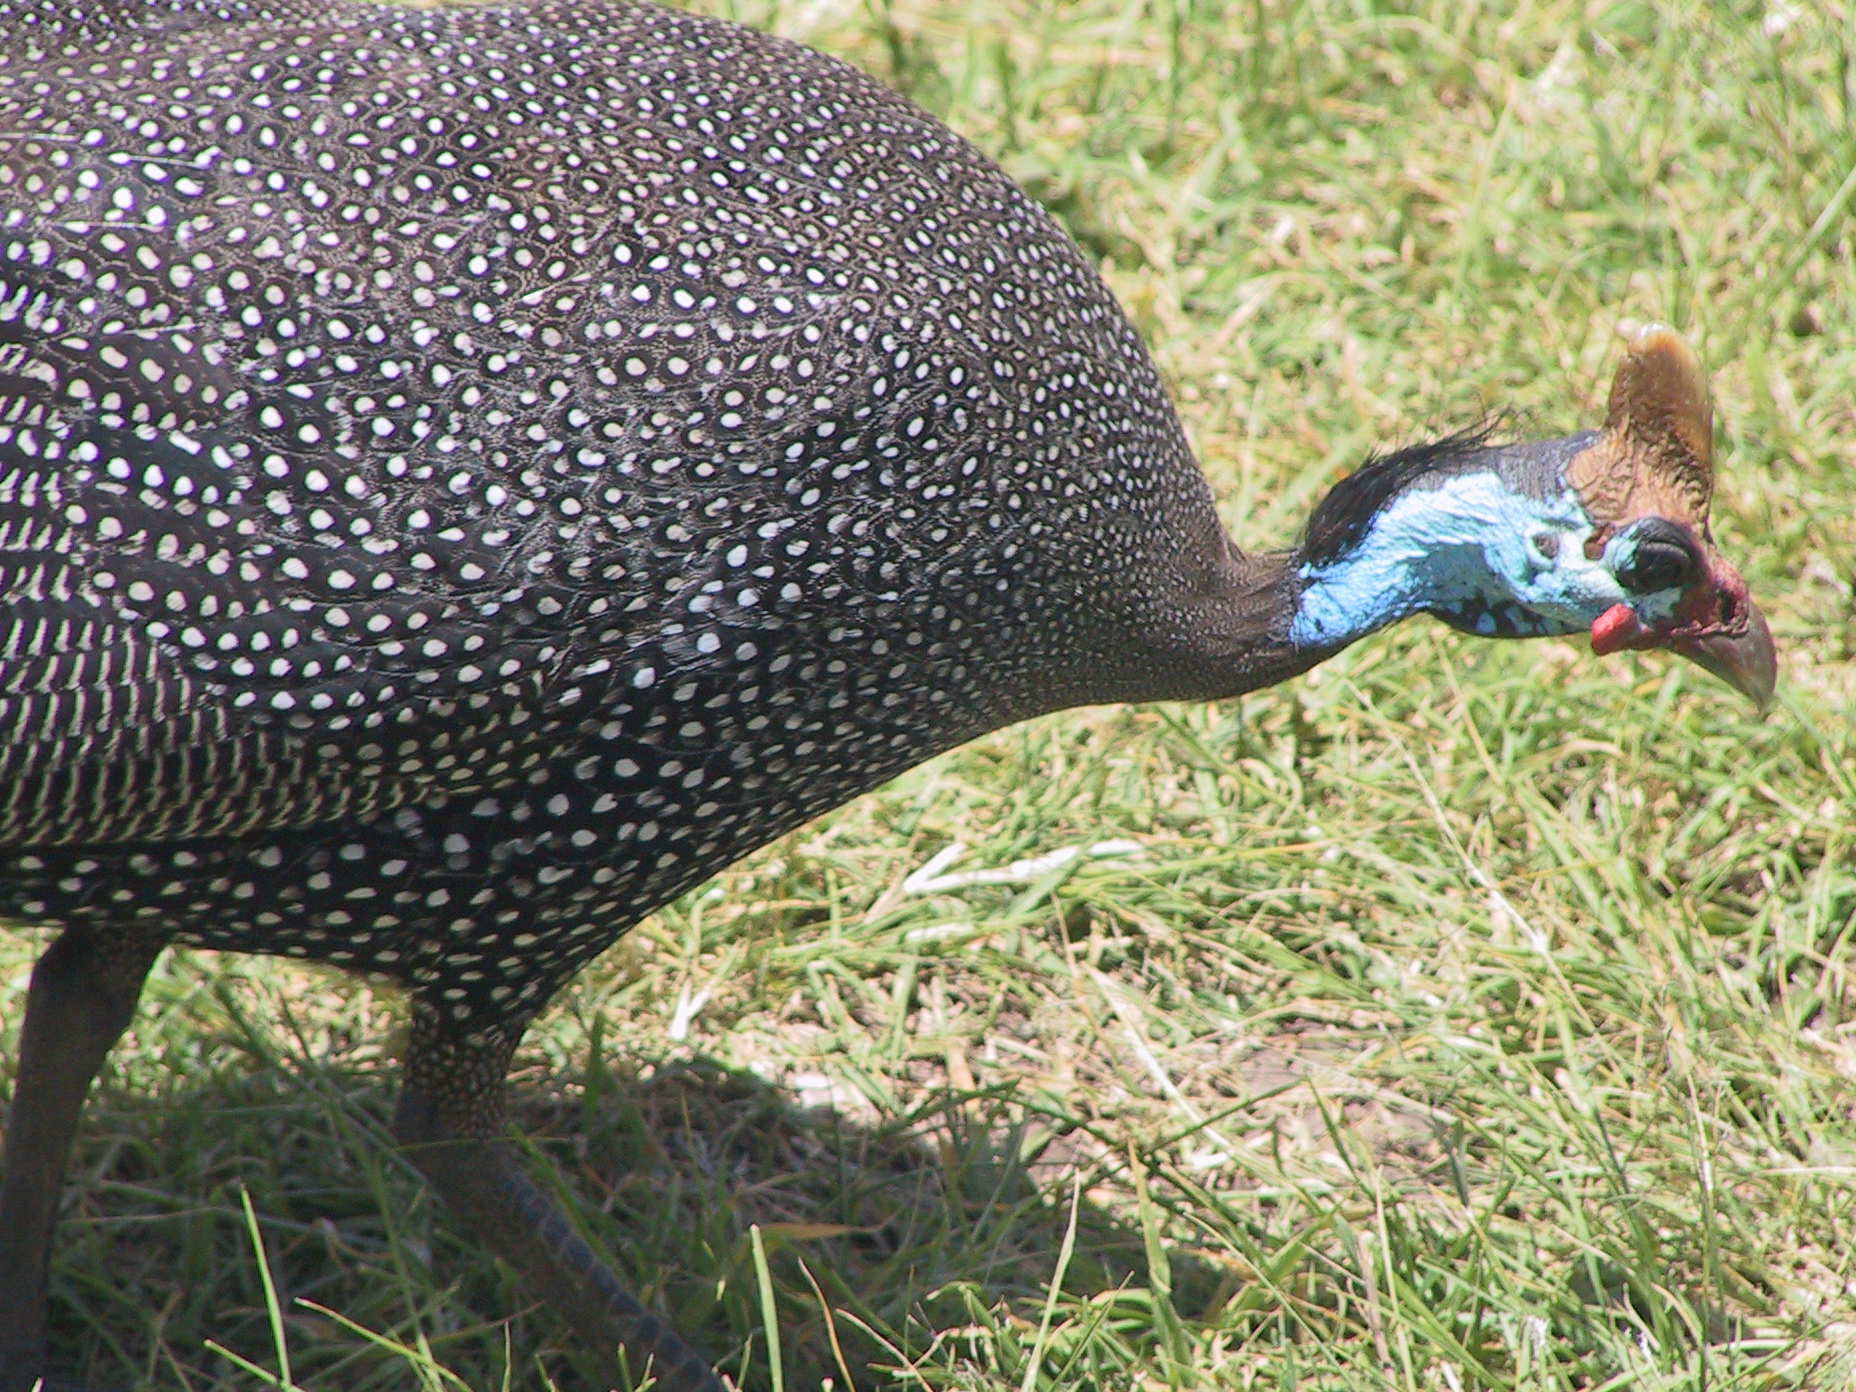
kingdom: Animalia
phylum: Chordata
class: Aves
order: Galliformes
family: Numididae
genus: Numida
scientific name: Numida meleagris
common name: Helmeted guineafowl
